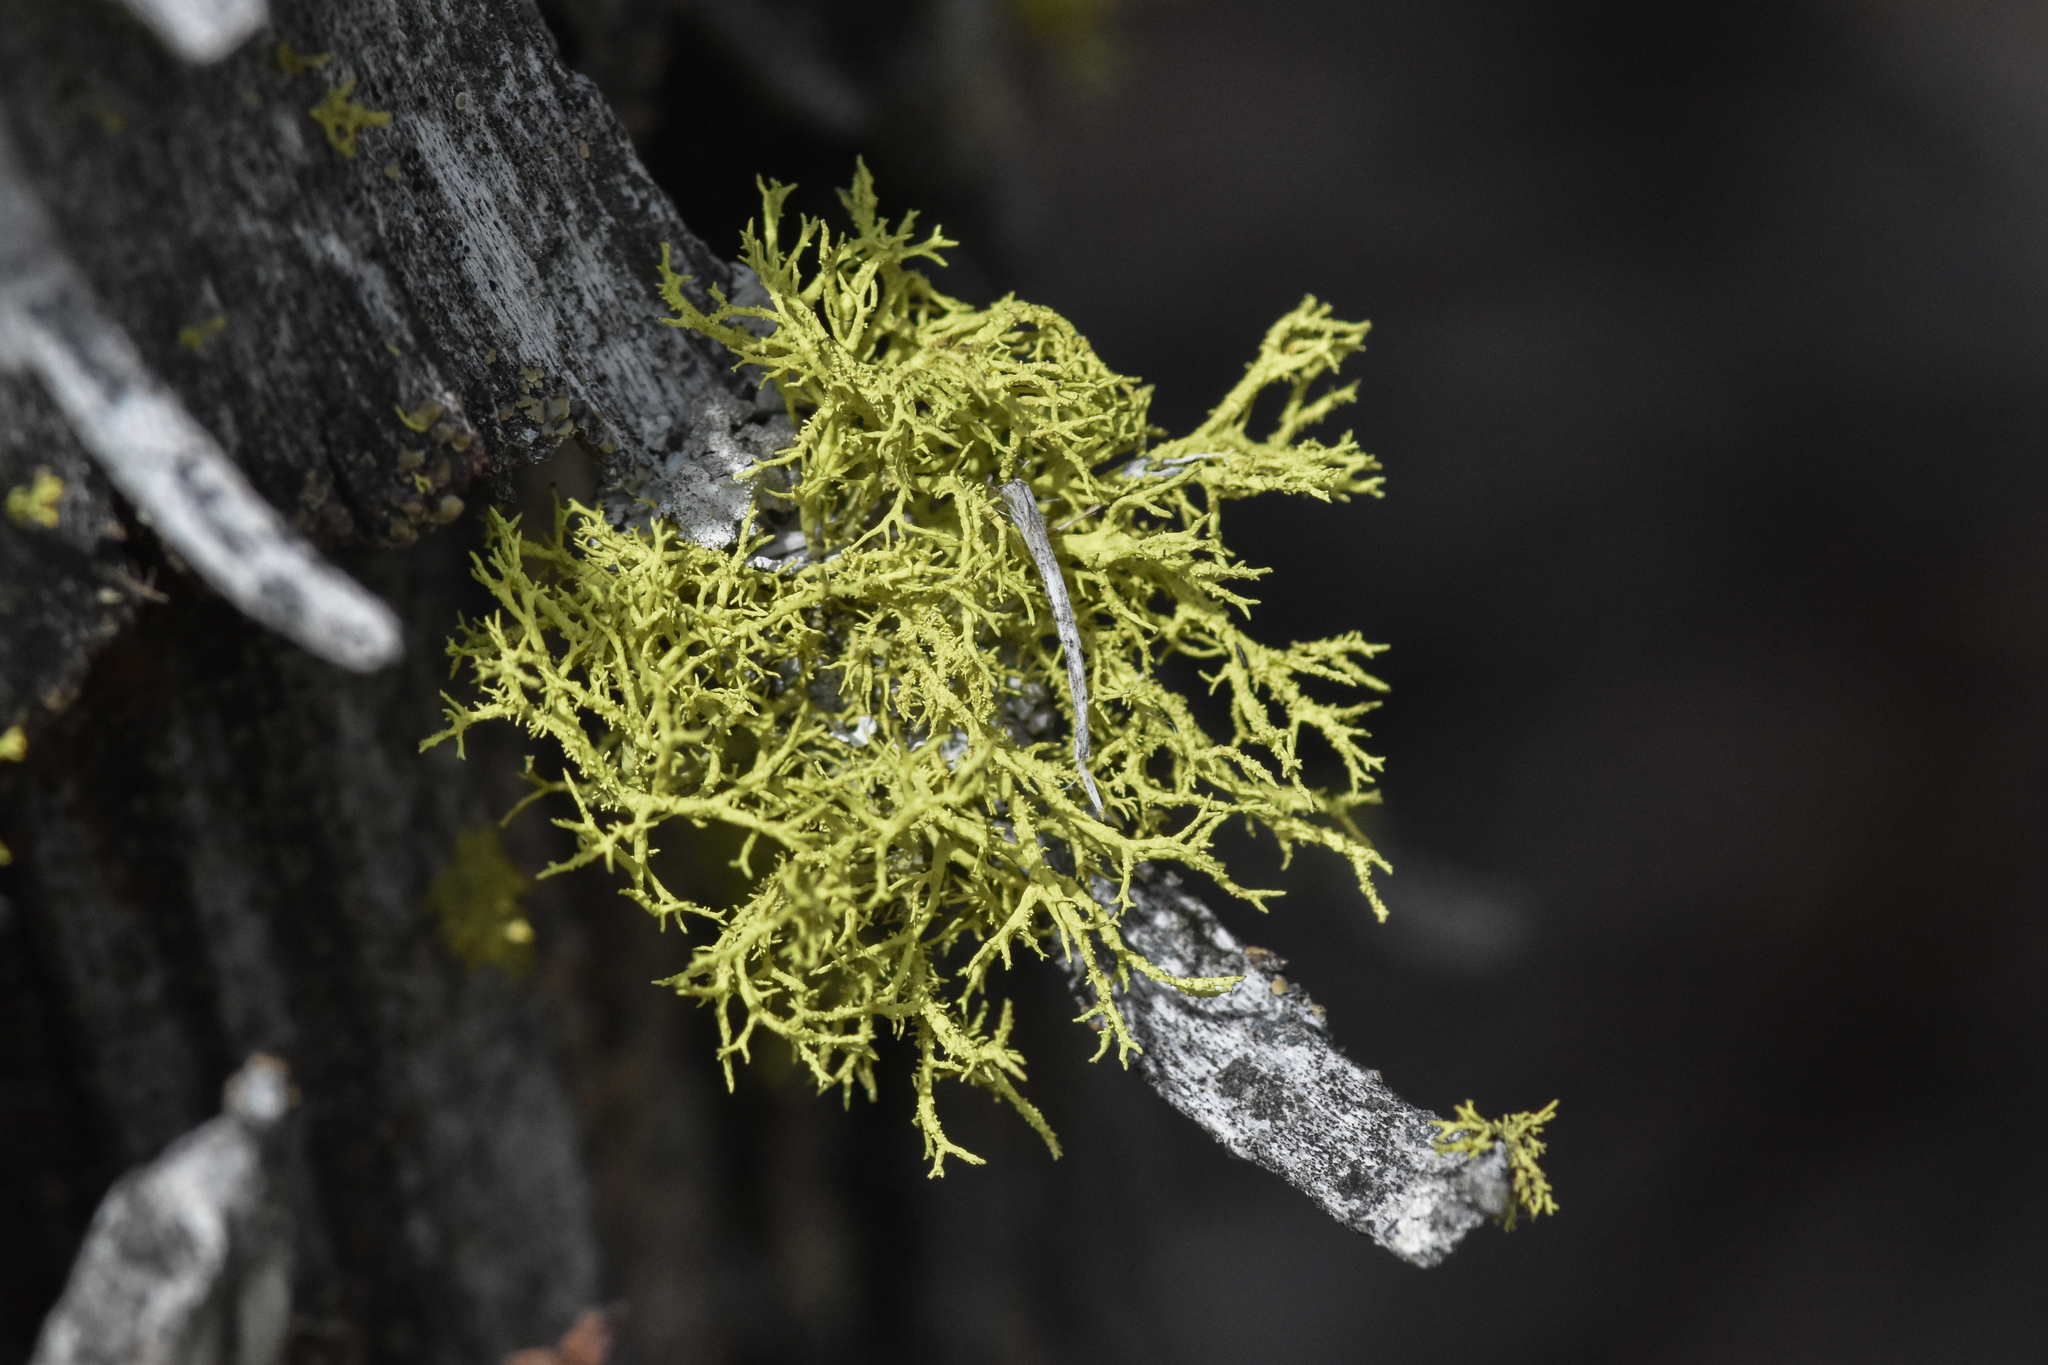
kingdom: Fungi
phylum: Ascomycota
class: Lecanoromycetes
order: Lecanorales
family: Parmeliaceae
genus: Letharia
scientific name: Letharia vulpina
